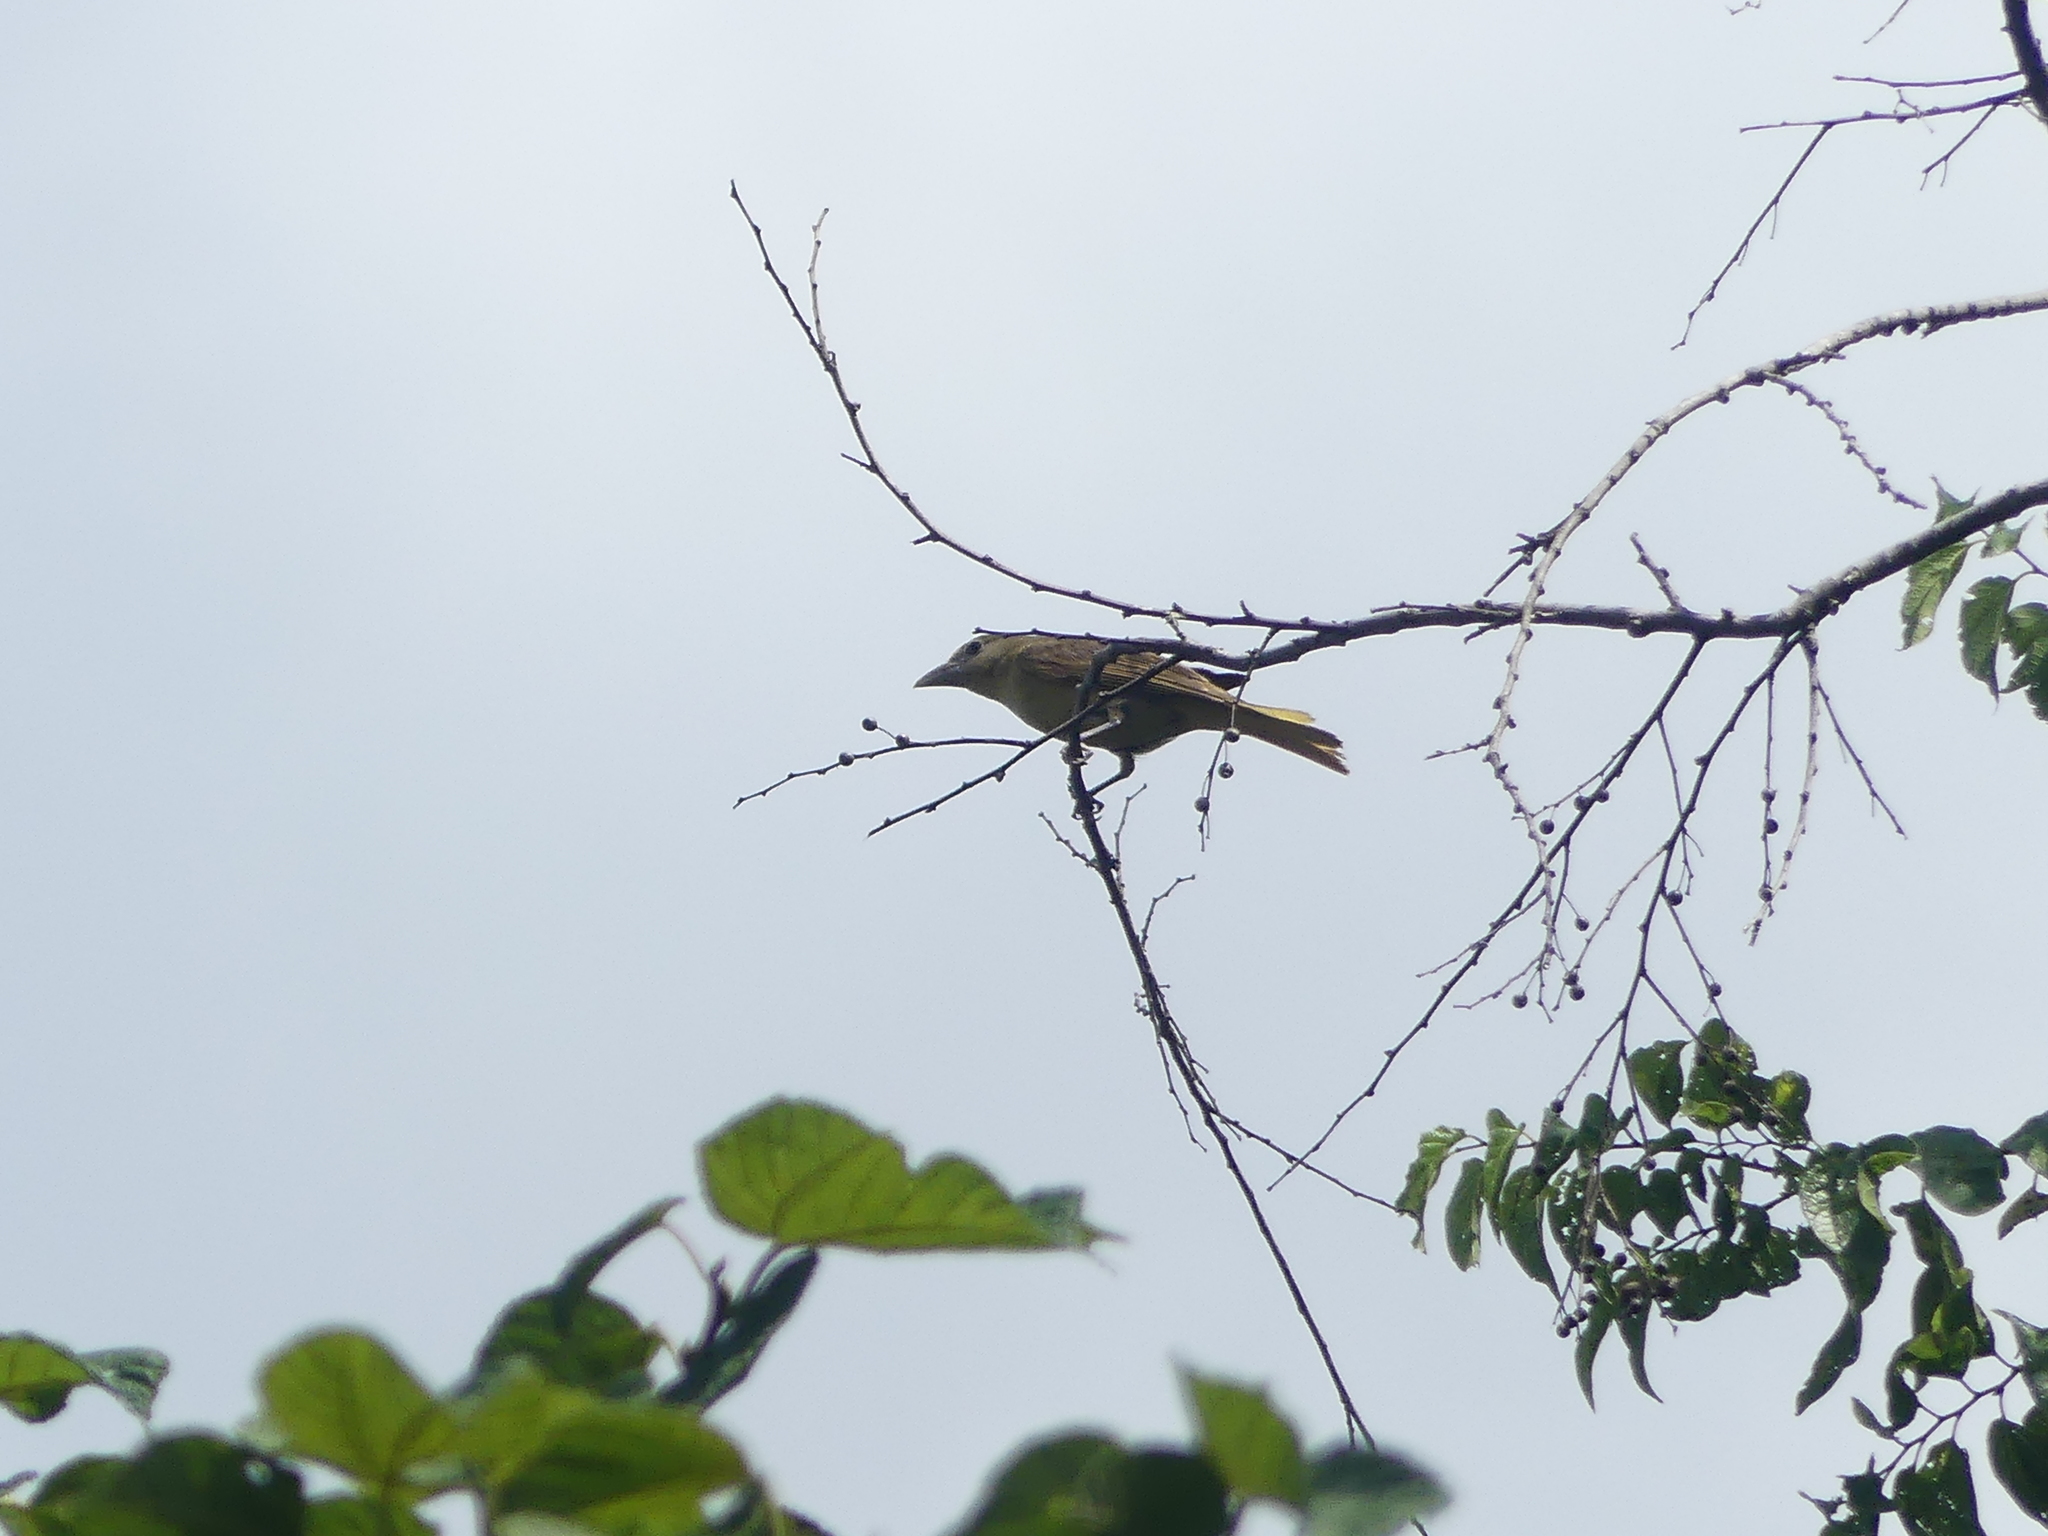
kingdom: Animalia
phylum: Chordata
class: Aves
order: Passeriformes
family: Cardinalidae
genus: Piranga
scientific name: Piranga rubra
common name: Summer tanager
